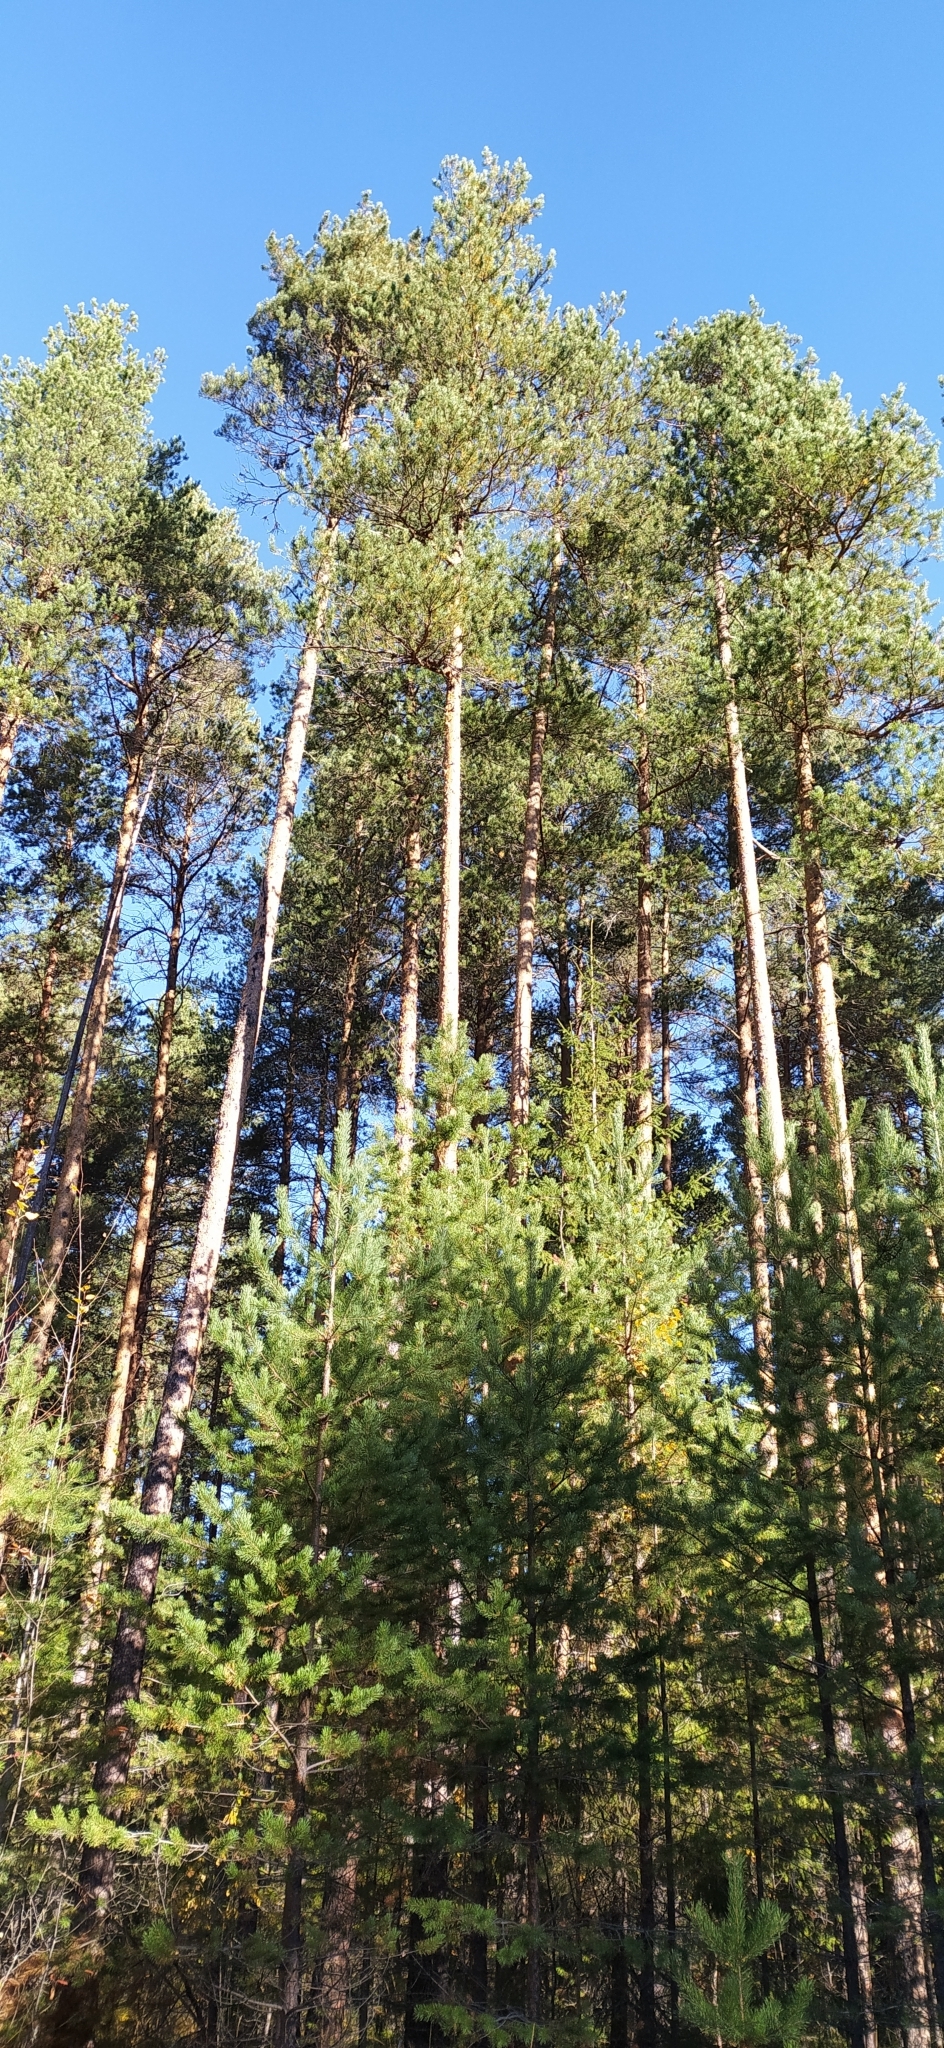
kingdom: Plantae
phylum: Tracheophyta
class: Pinopsida
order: Pinales
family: Pinaceae
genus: Pinus
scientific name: Pinus sylvestris
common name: Scots pine
